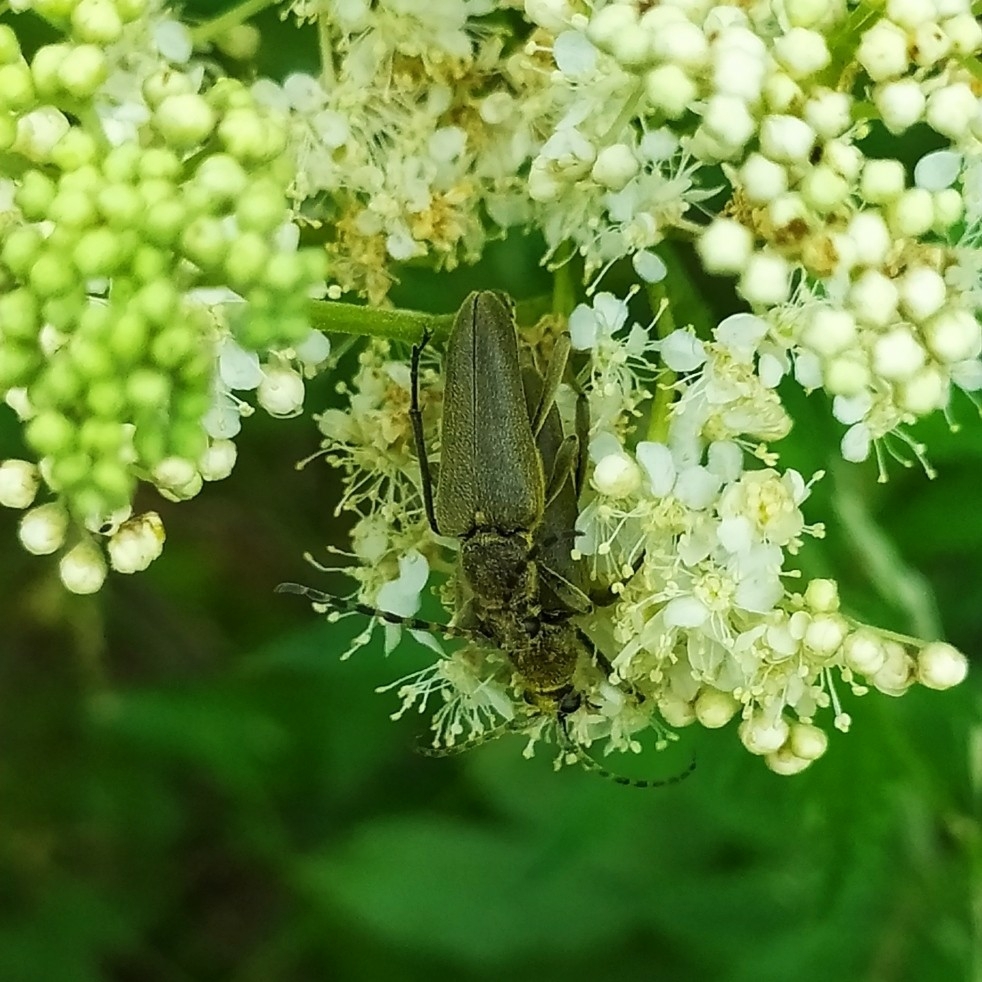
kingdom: Animalia
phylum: Arthropoda
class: Insecta
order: Coleoptera
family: Cerambycidae
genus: Lepturobosca
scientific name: Lepturobosca virens
